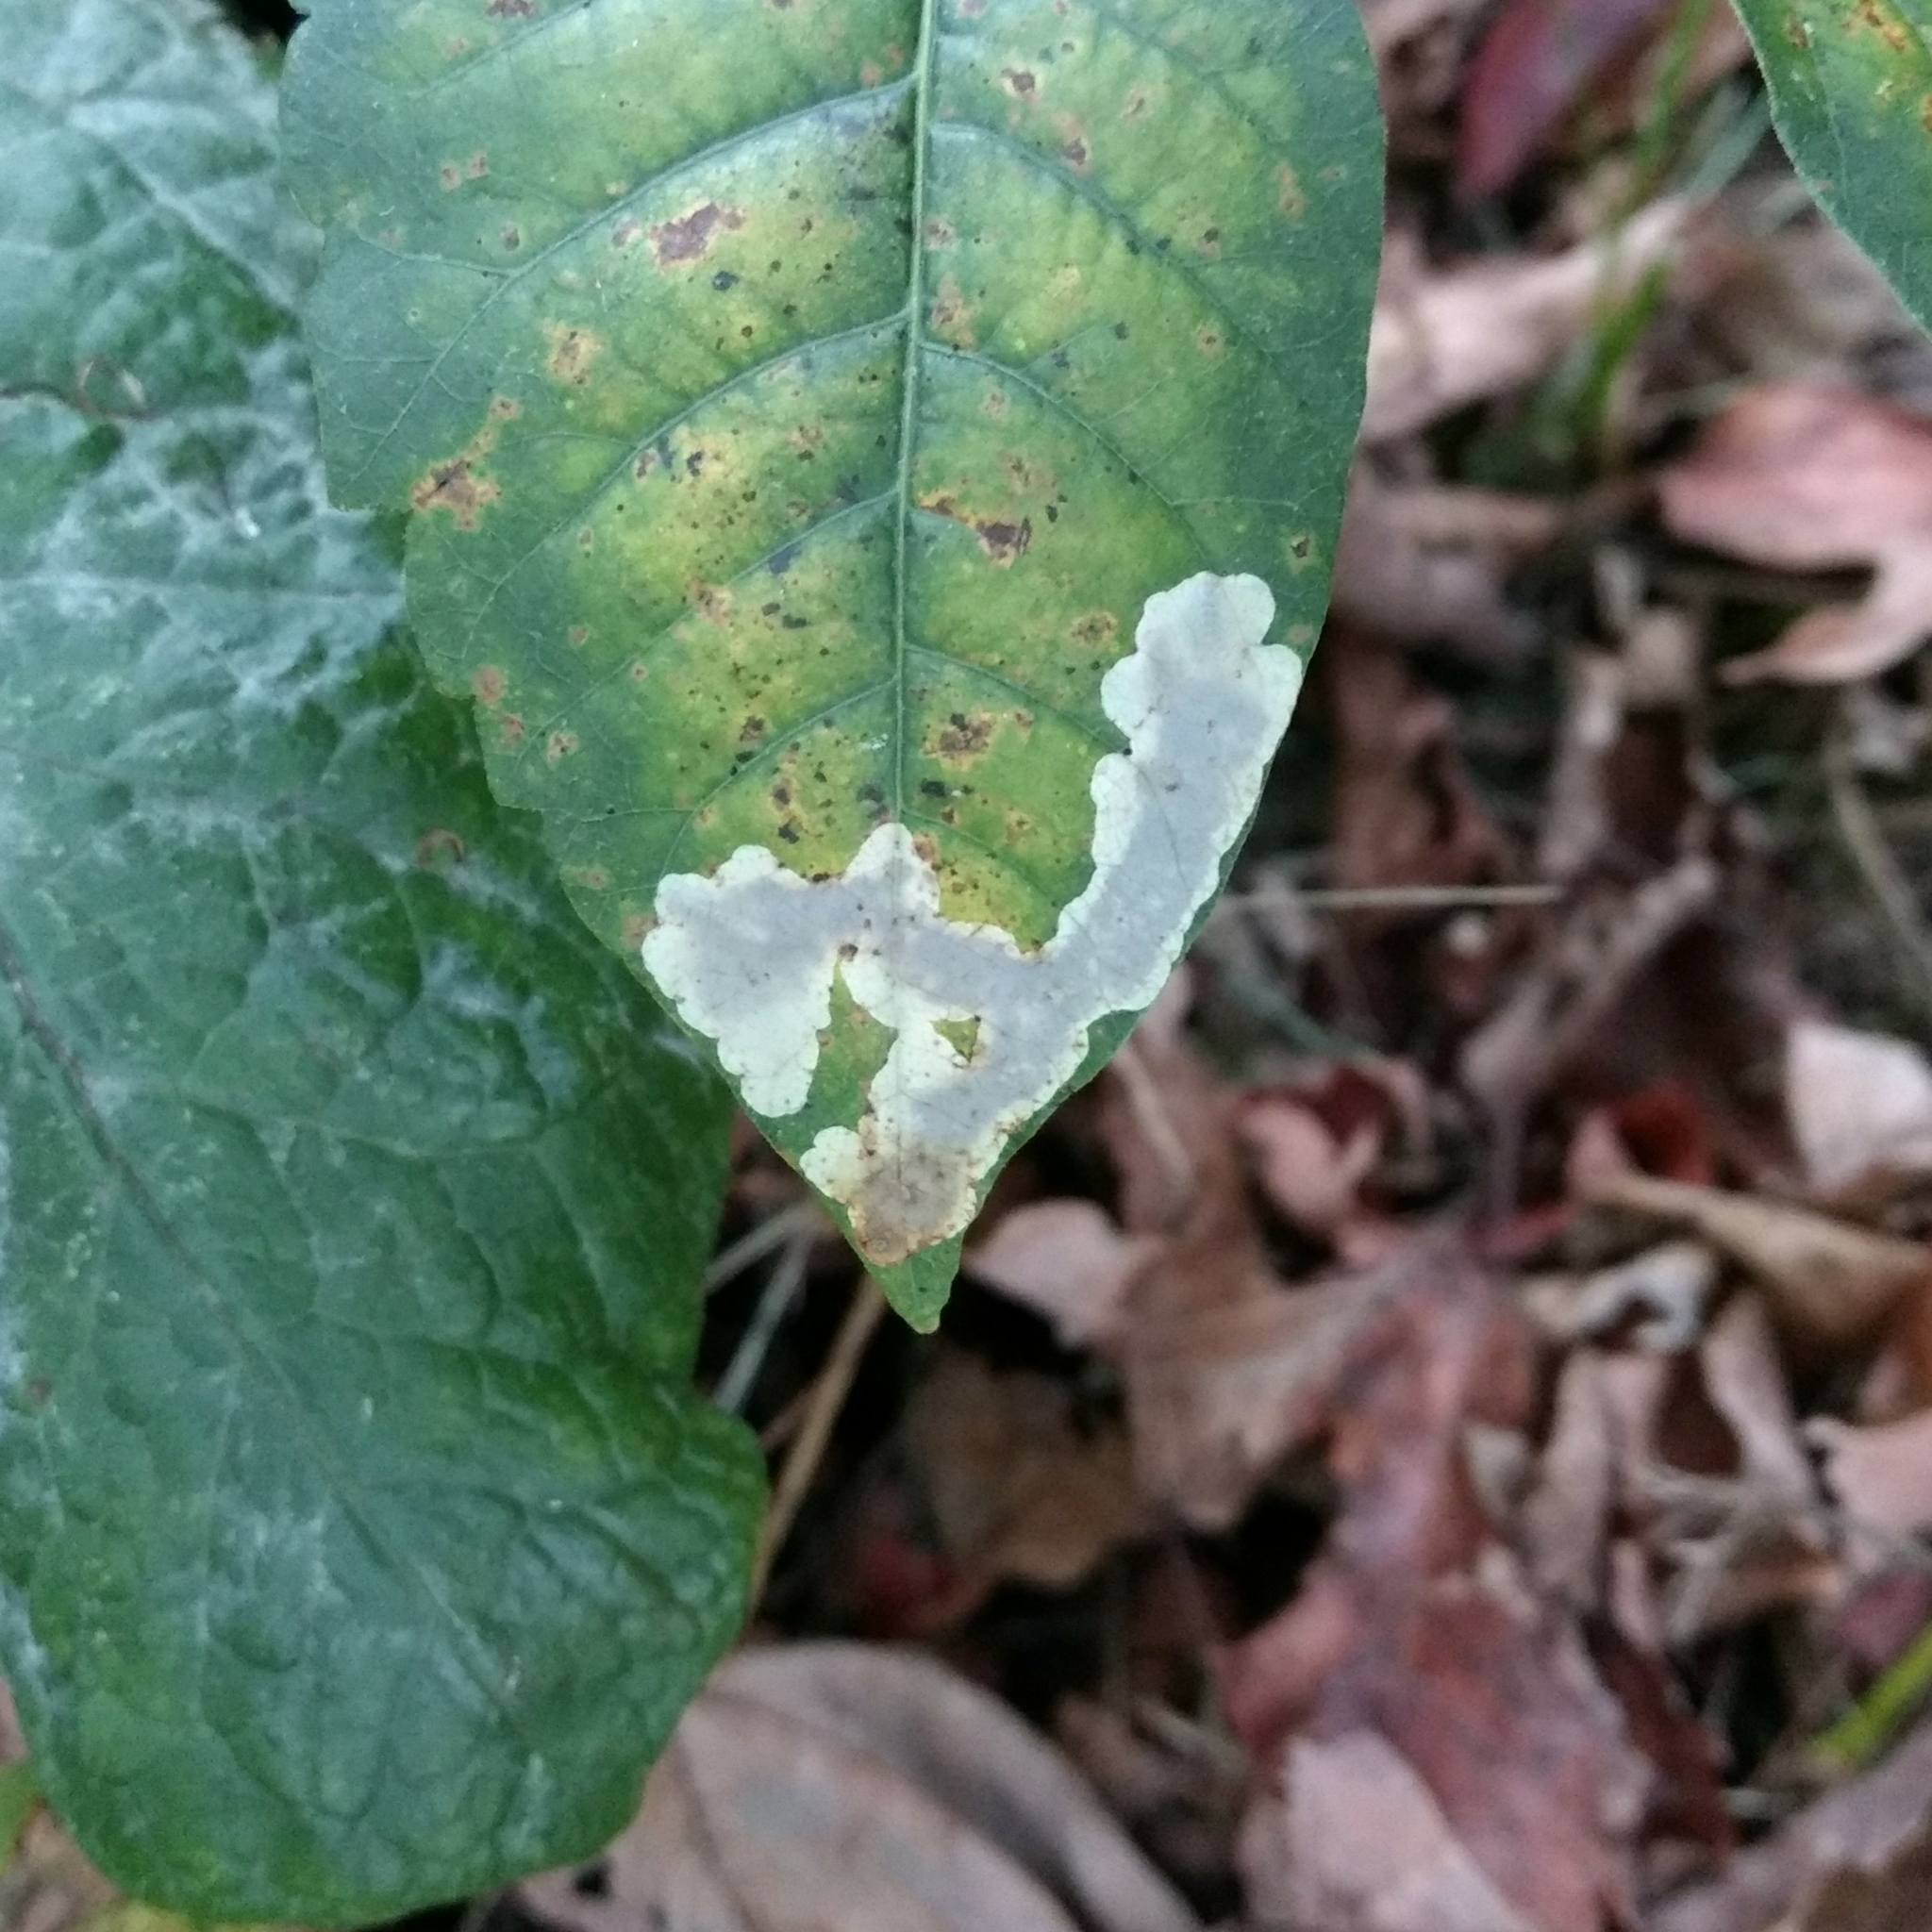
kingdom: Animalia
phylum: Arthropoda
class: Insecta
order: Lepidoptera
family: Gracillariidae
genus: Cameraria
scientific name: Cameraria guttifinitella
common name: Poison ivy leaf-miner moth
